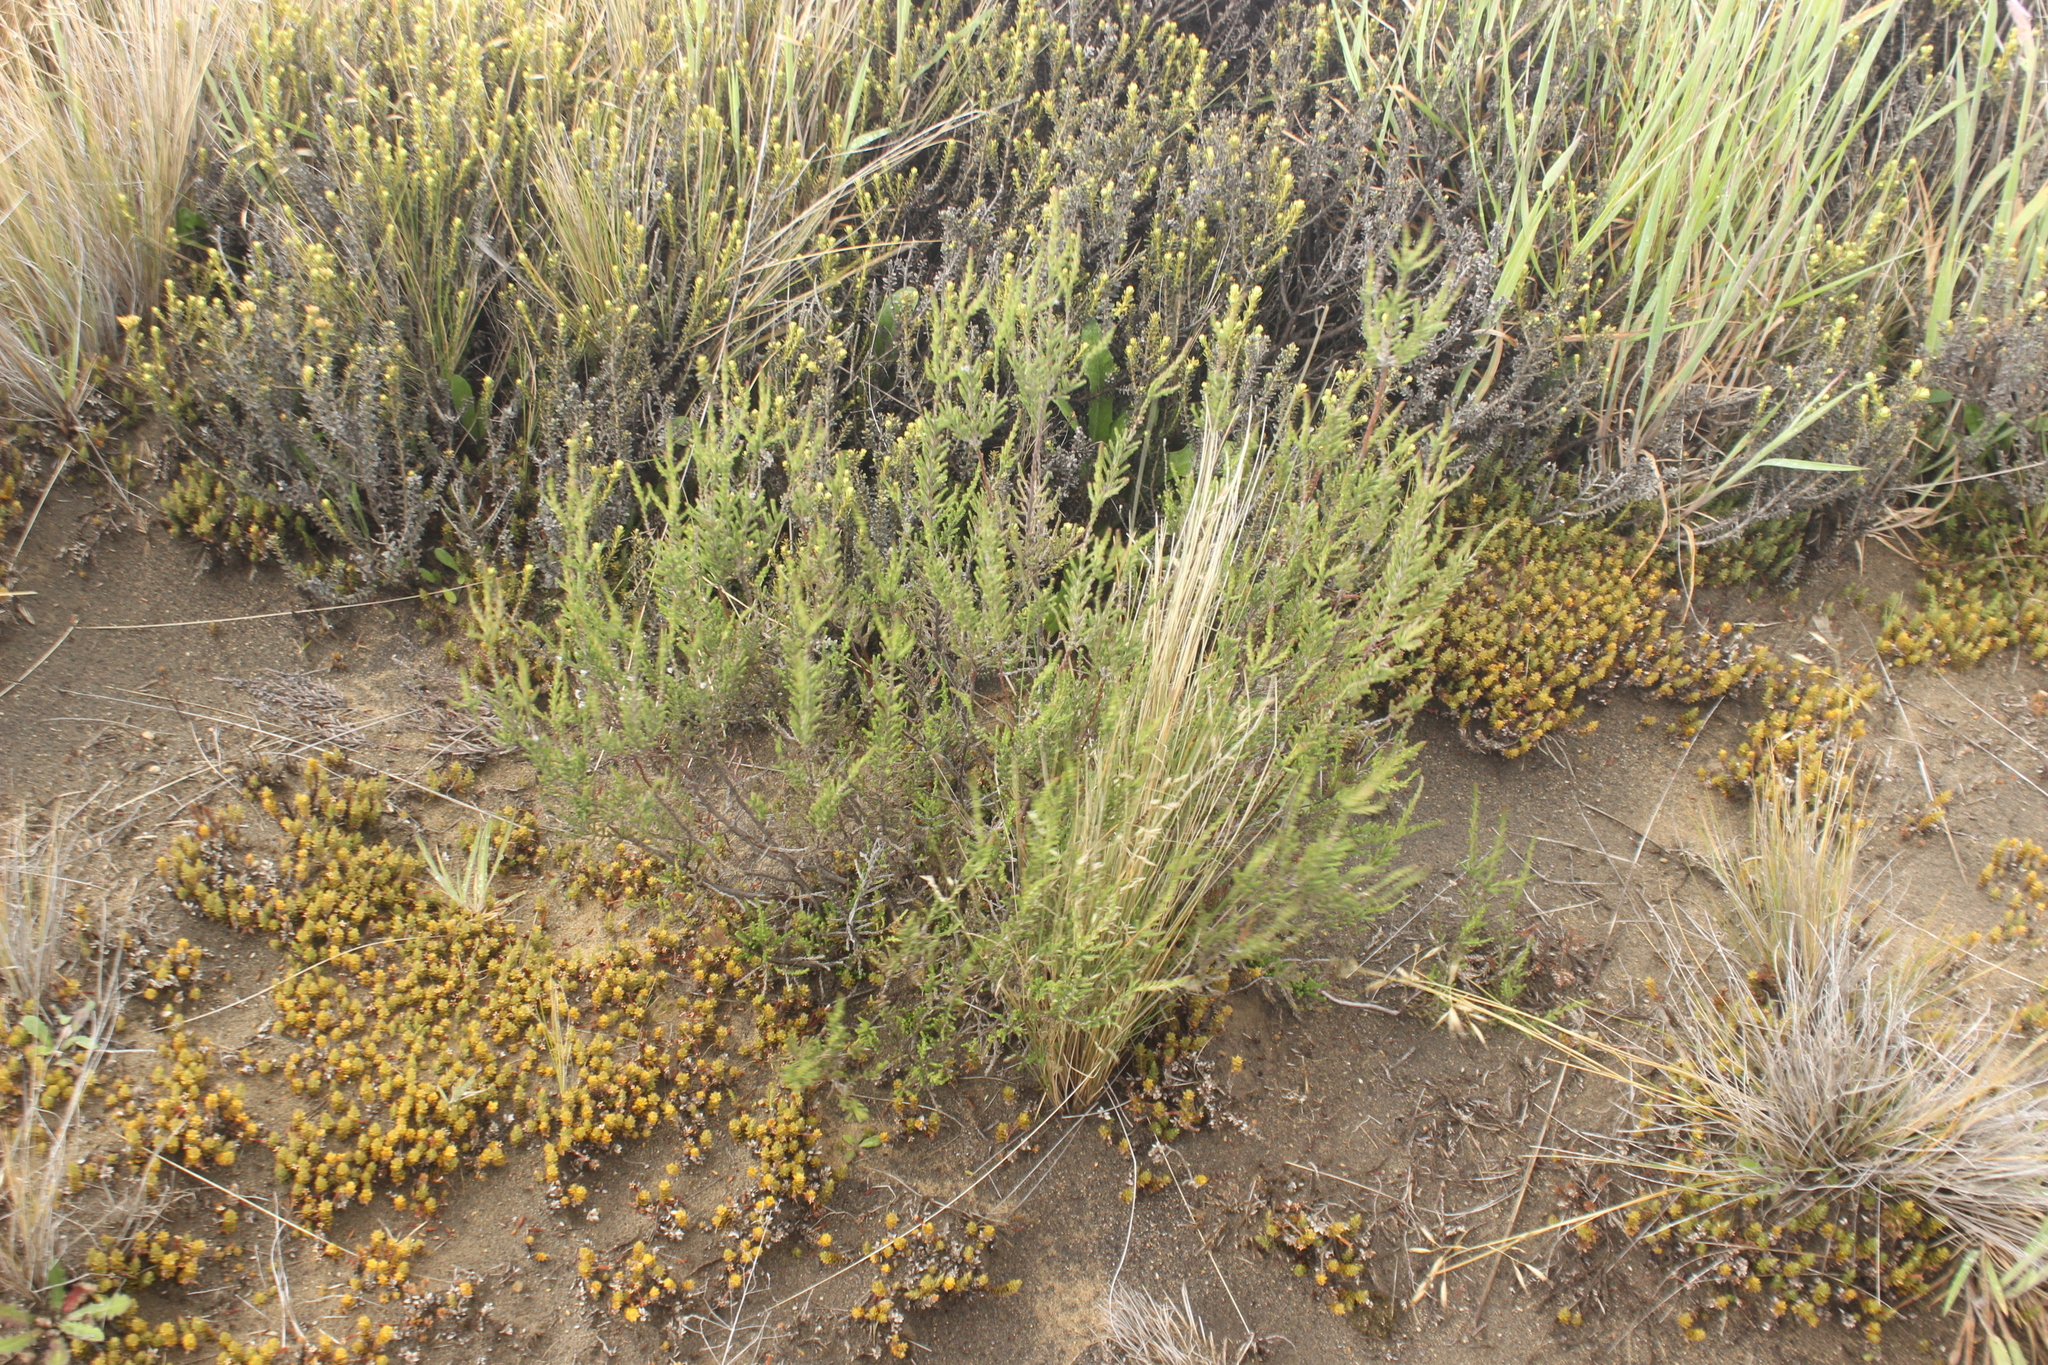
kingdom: Plantae
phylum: Tracheophyta
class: Magnoliopsida
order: Ericales
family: Ericaceae
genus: Calluna
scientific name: Calluna vulgaris
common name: Heather
